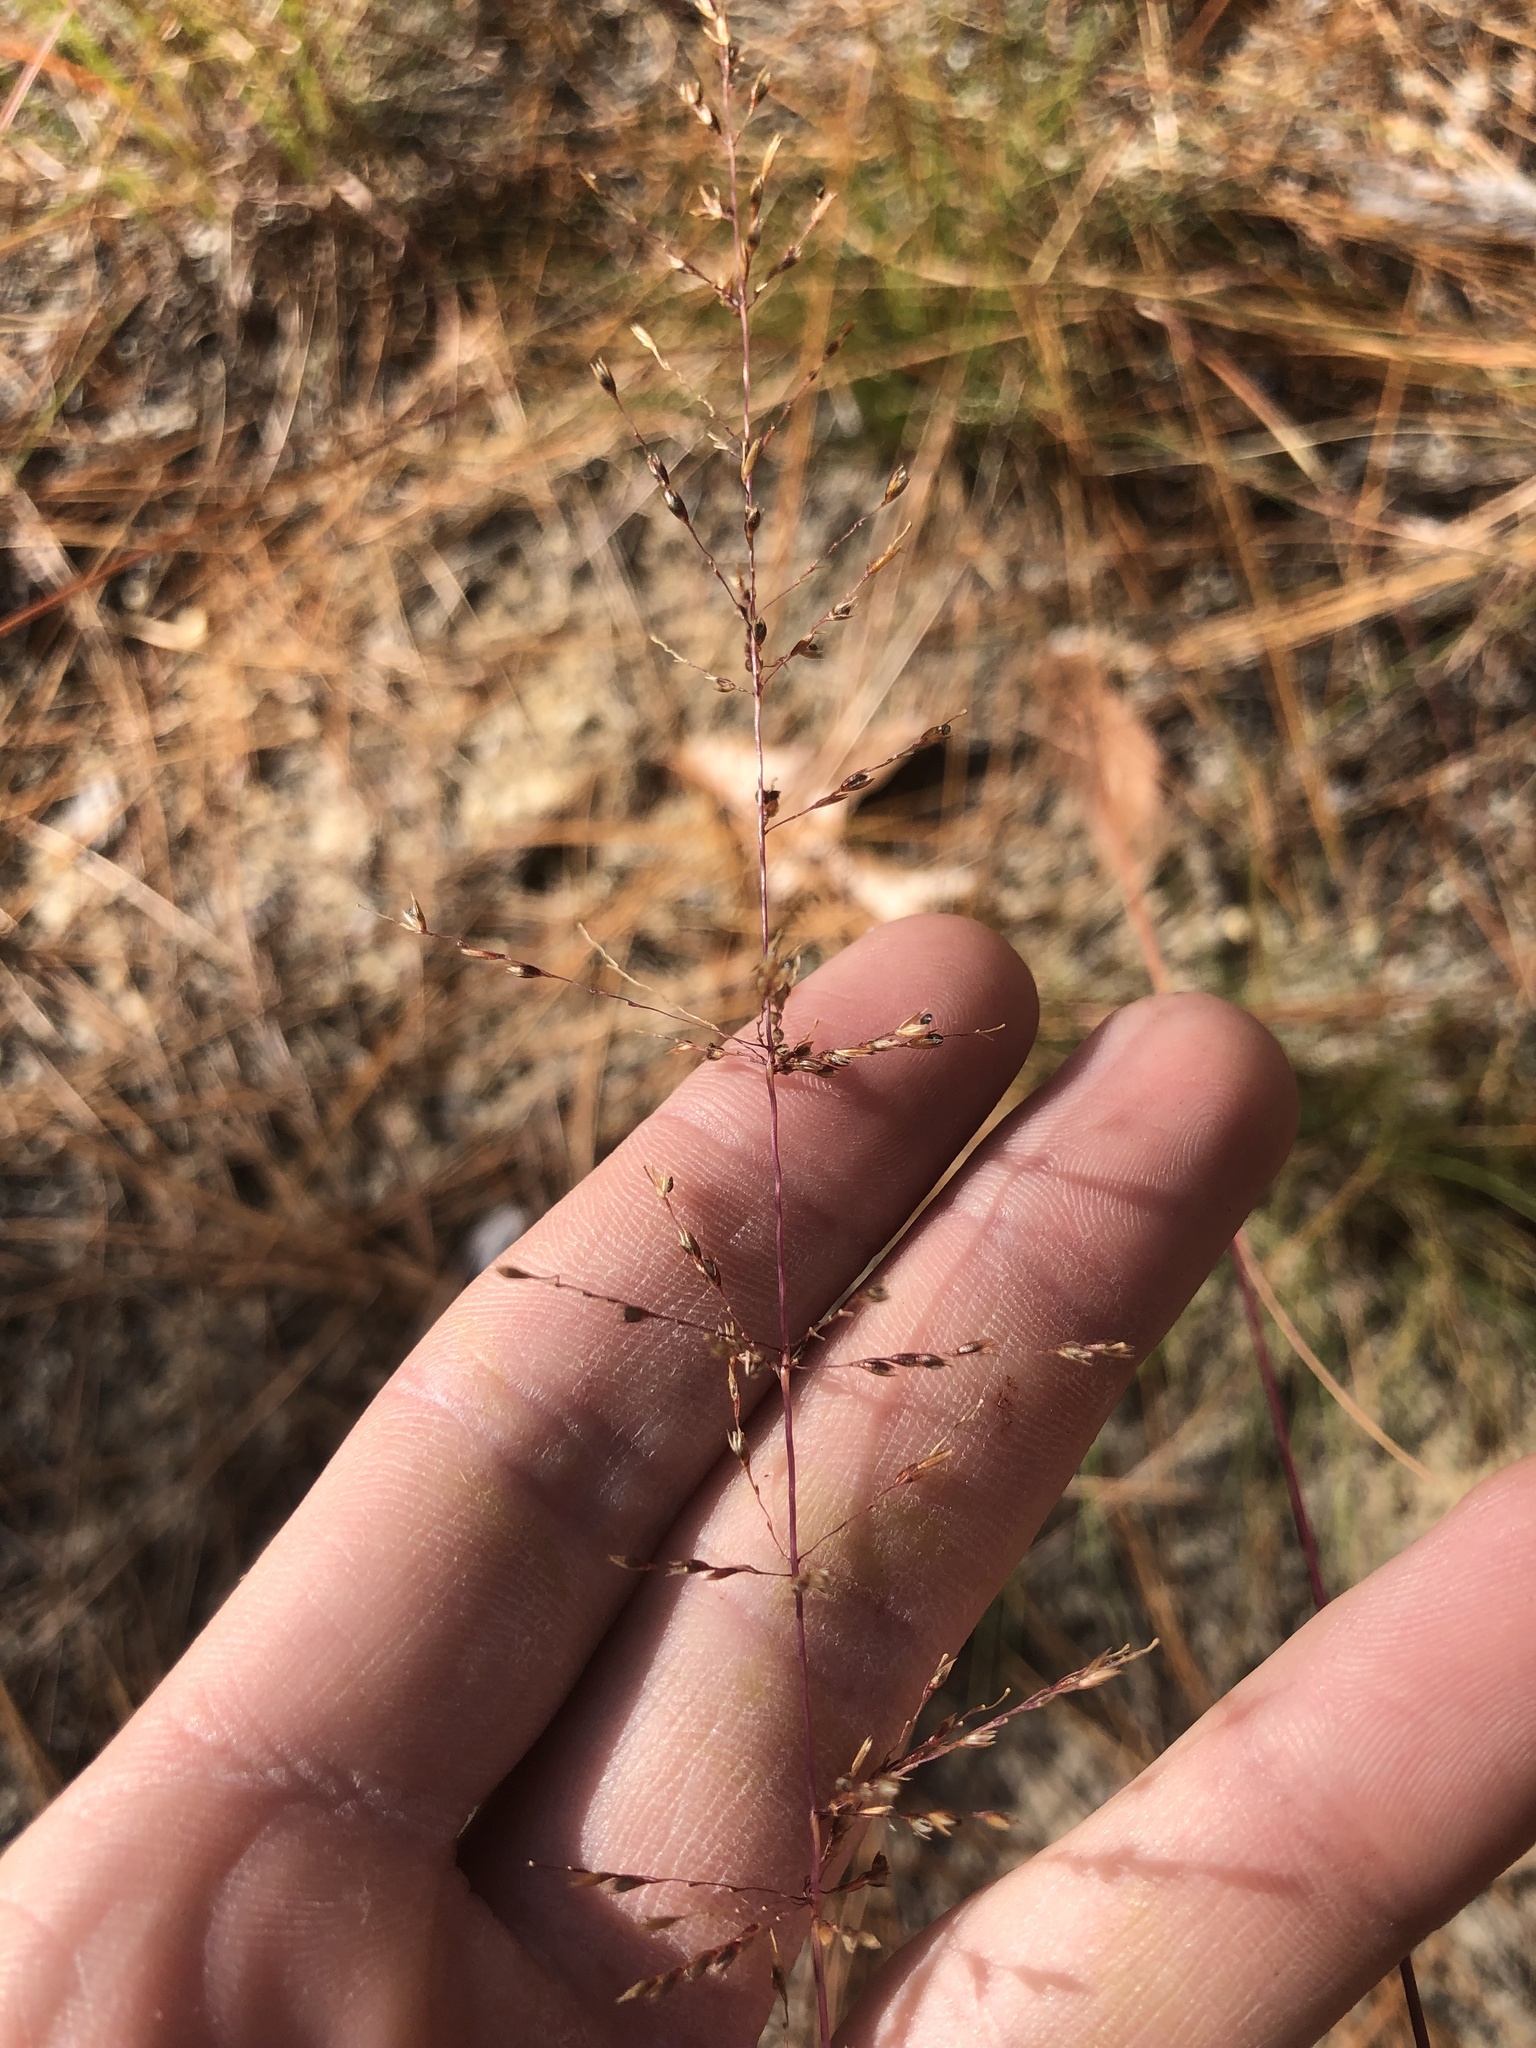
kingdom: Plantae
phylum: Tracheophyta
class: Liliopsida
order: Poales
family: Poaceae
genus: Sporobolus
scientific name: Sporobolus junceus
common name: Lizard grass
